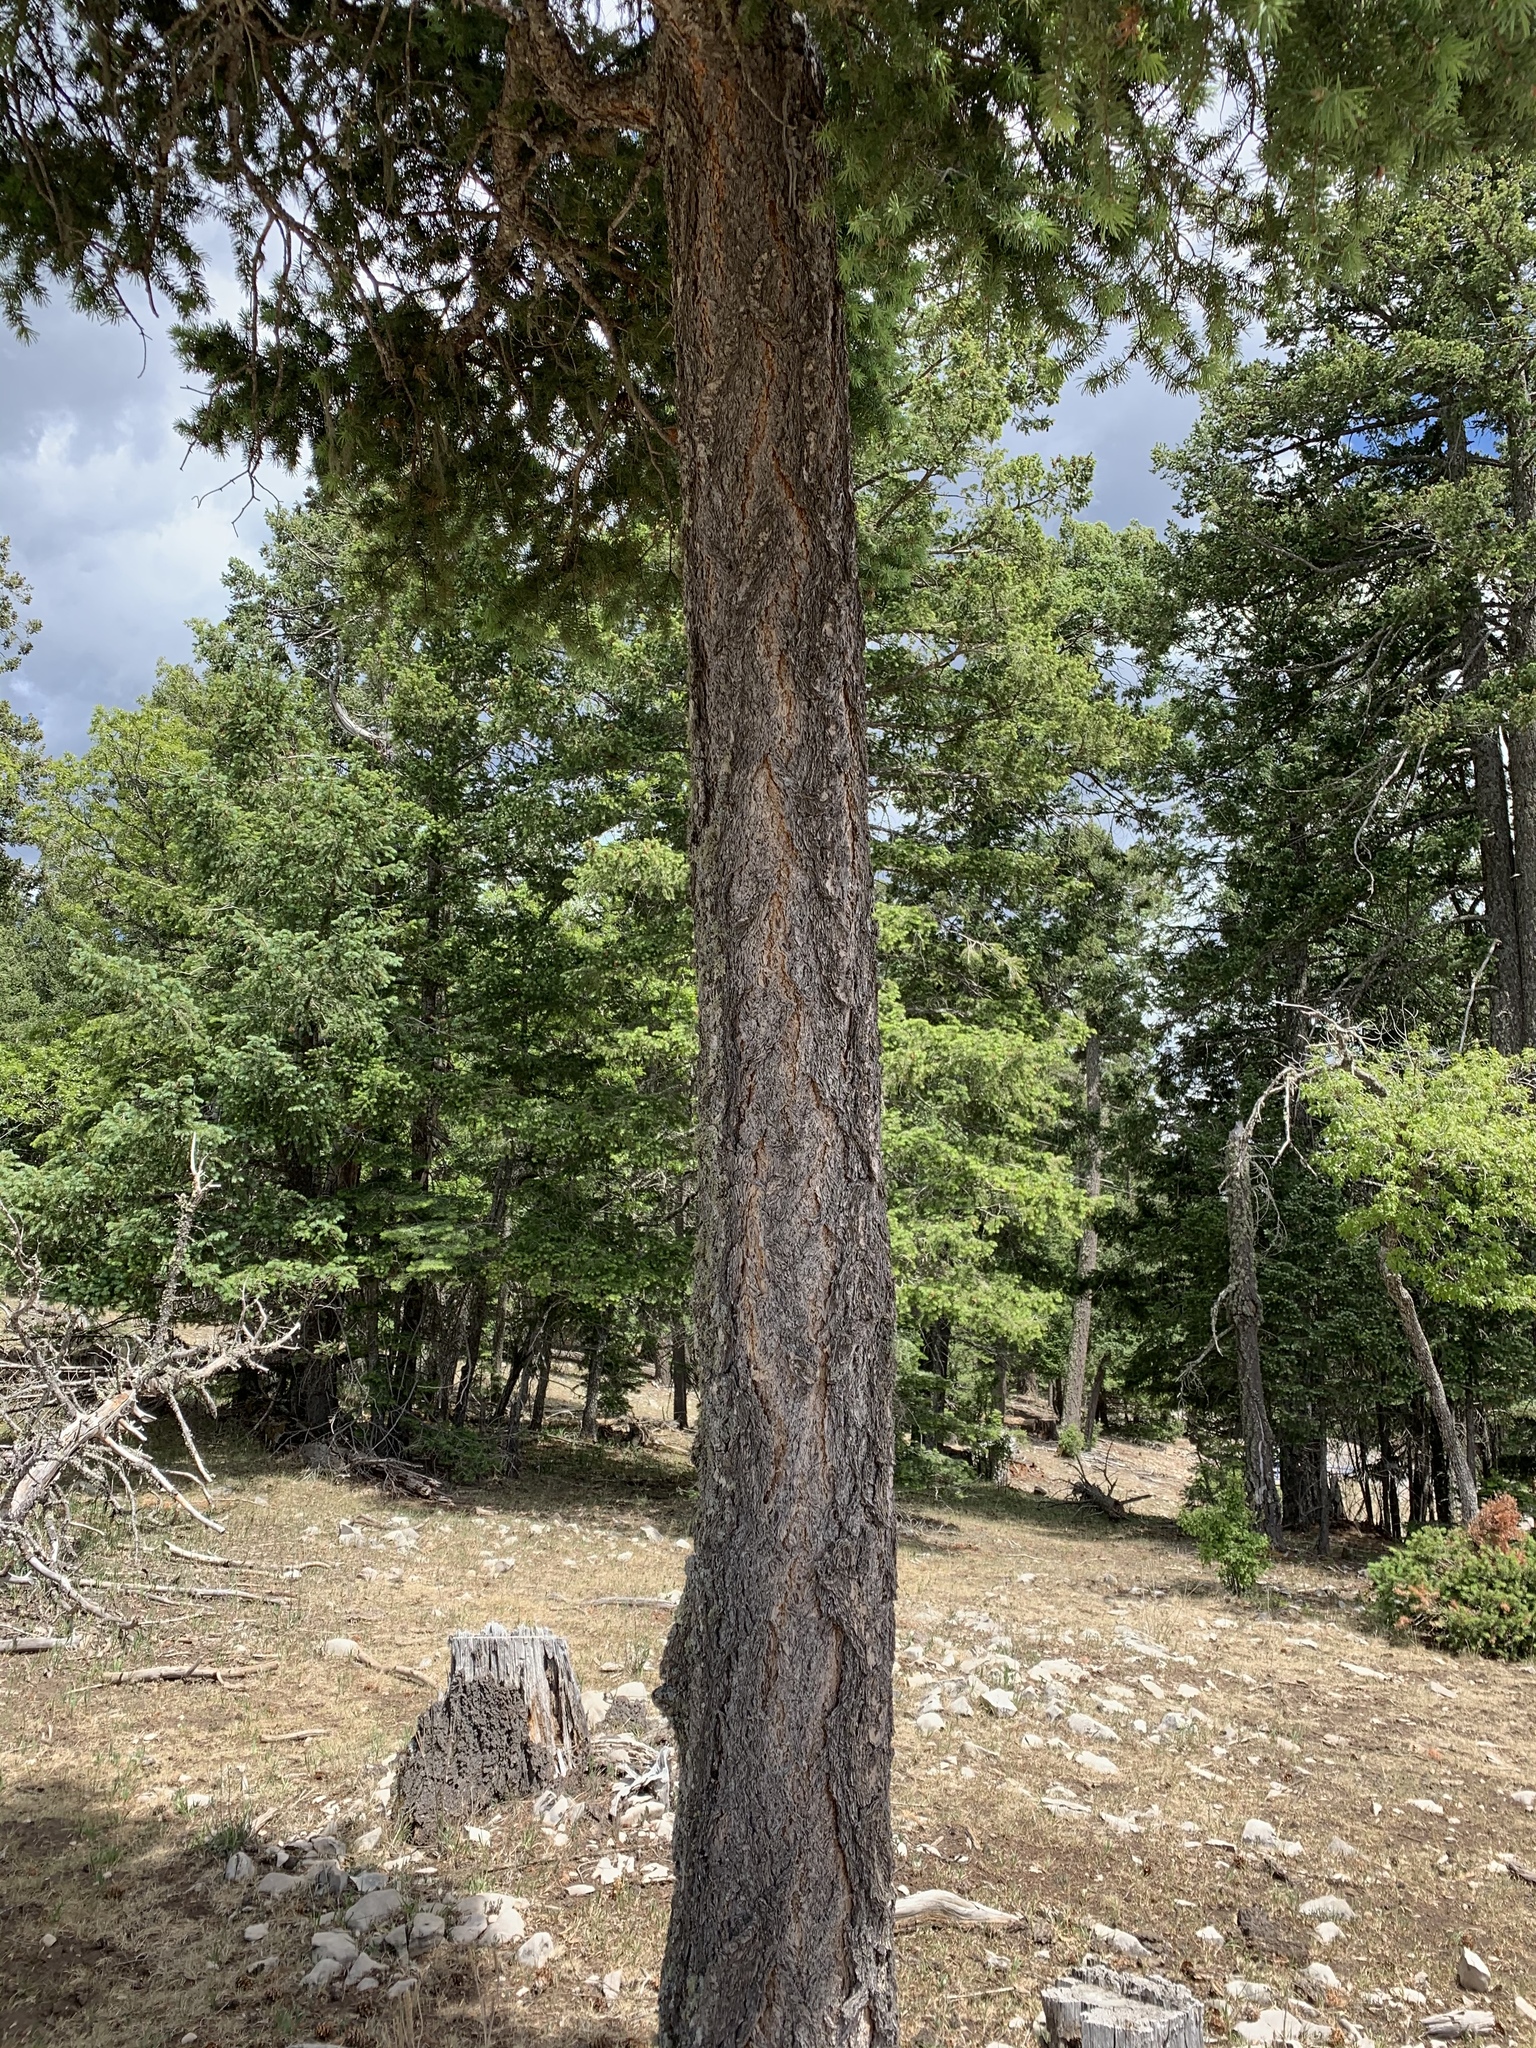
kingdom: Plantae
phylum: Tracheophyta
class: Pinopsida
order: Pinales
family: Pinaceae
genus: Pseudotsuga
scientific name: Pseudotsuga menziesii
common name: Douglas fir
